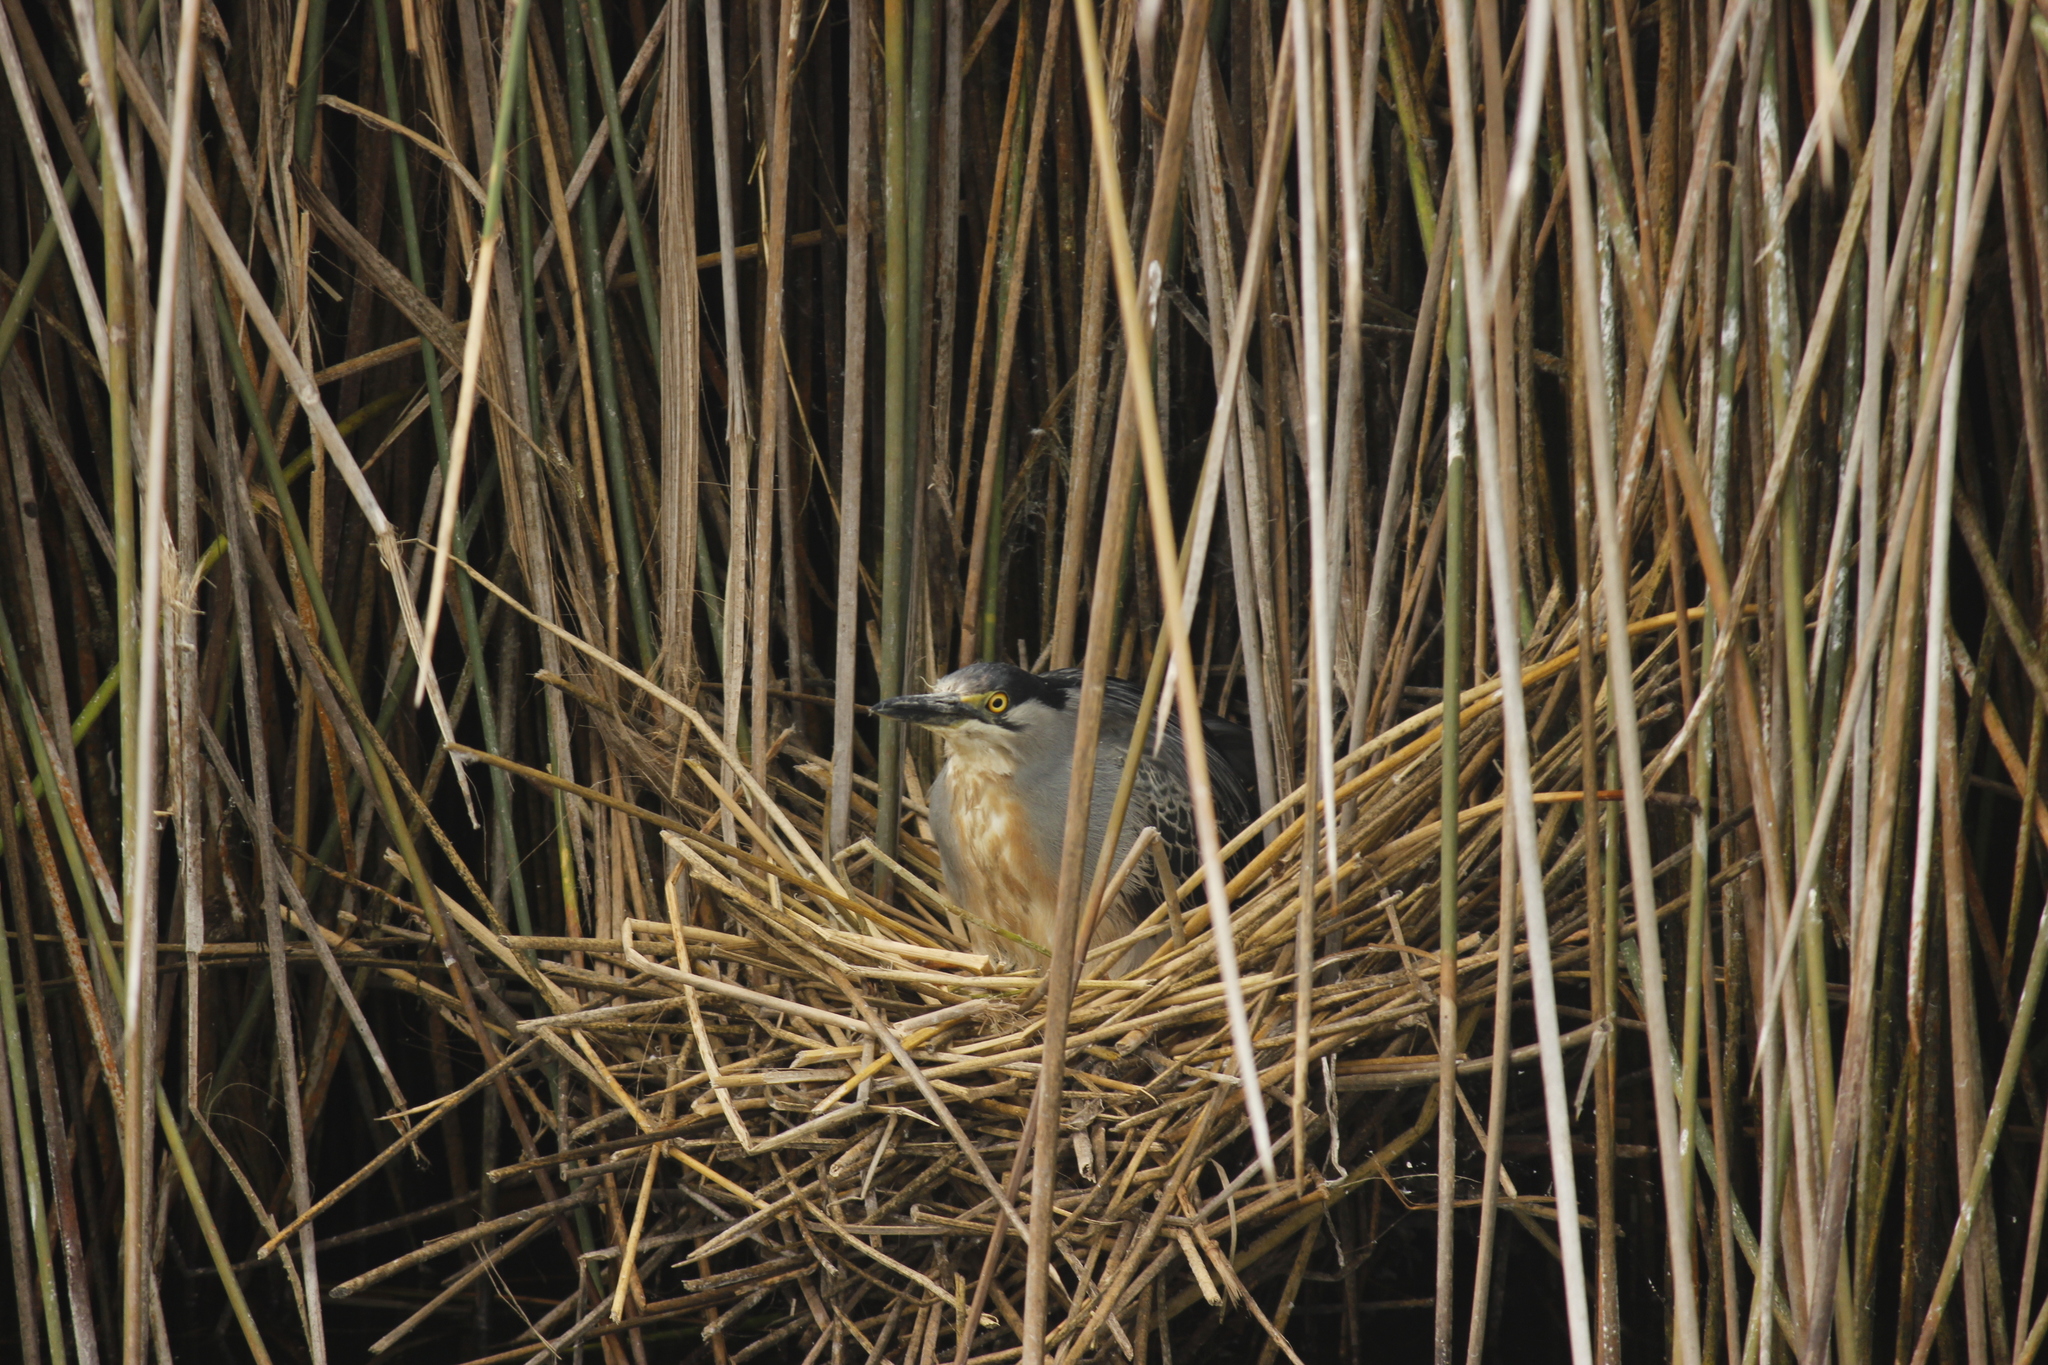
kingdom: Animalia
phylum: Chordata
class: Aves
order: Pelecaniformes
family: Ardeidae
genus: Butorides
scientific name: Butorides striata
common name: Striated heron
